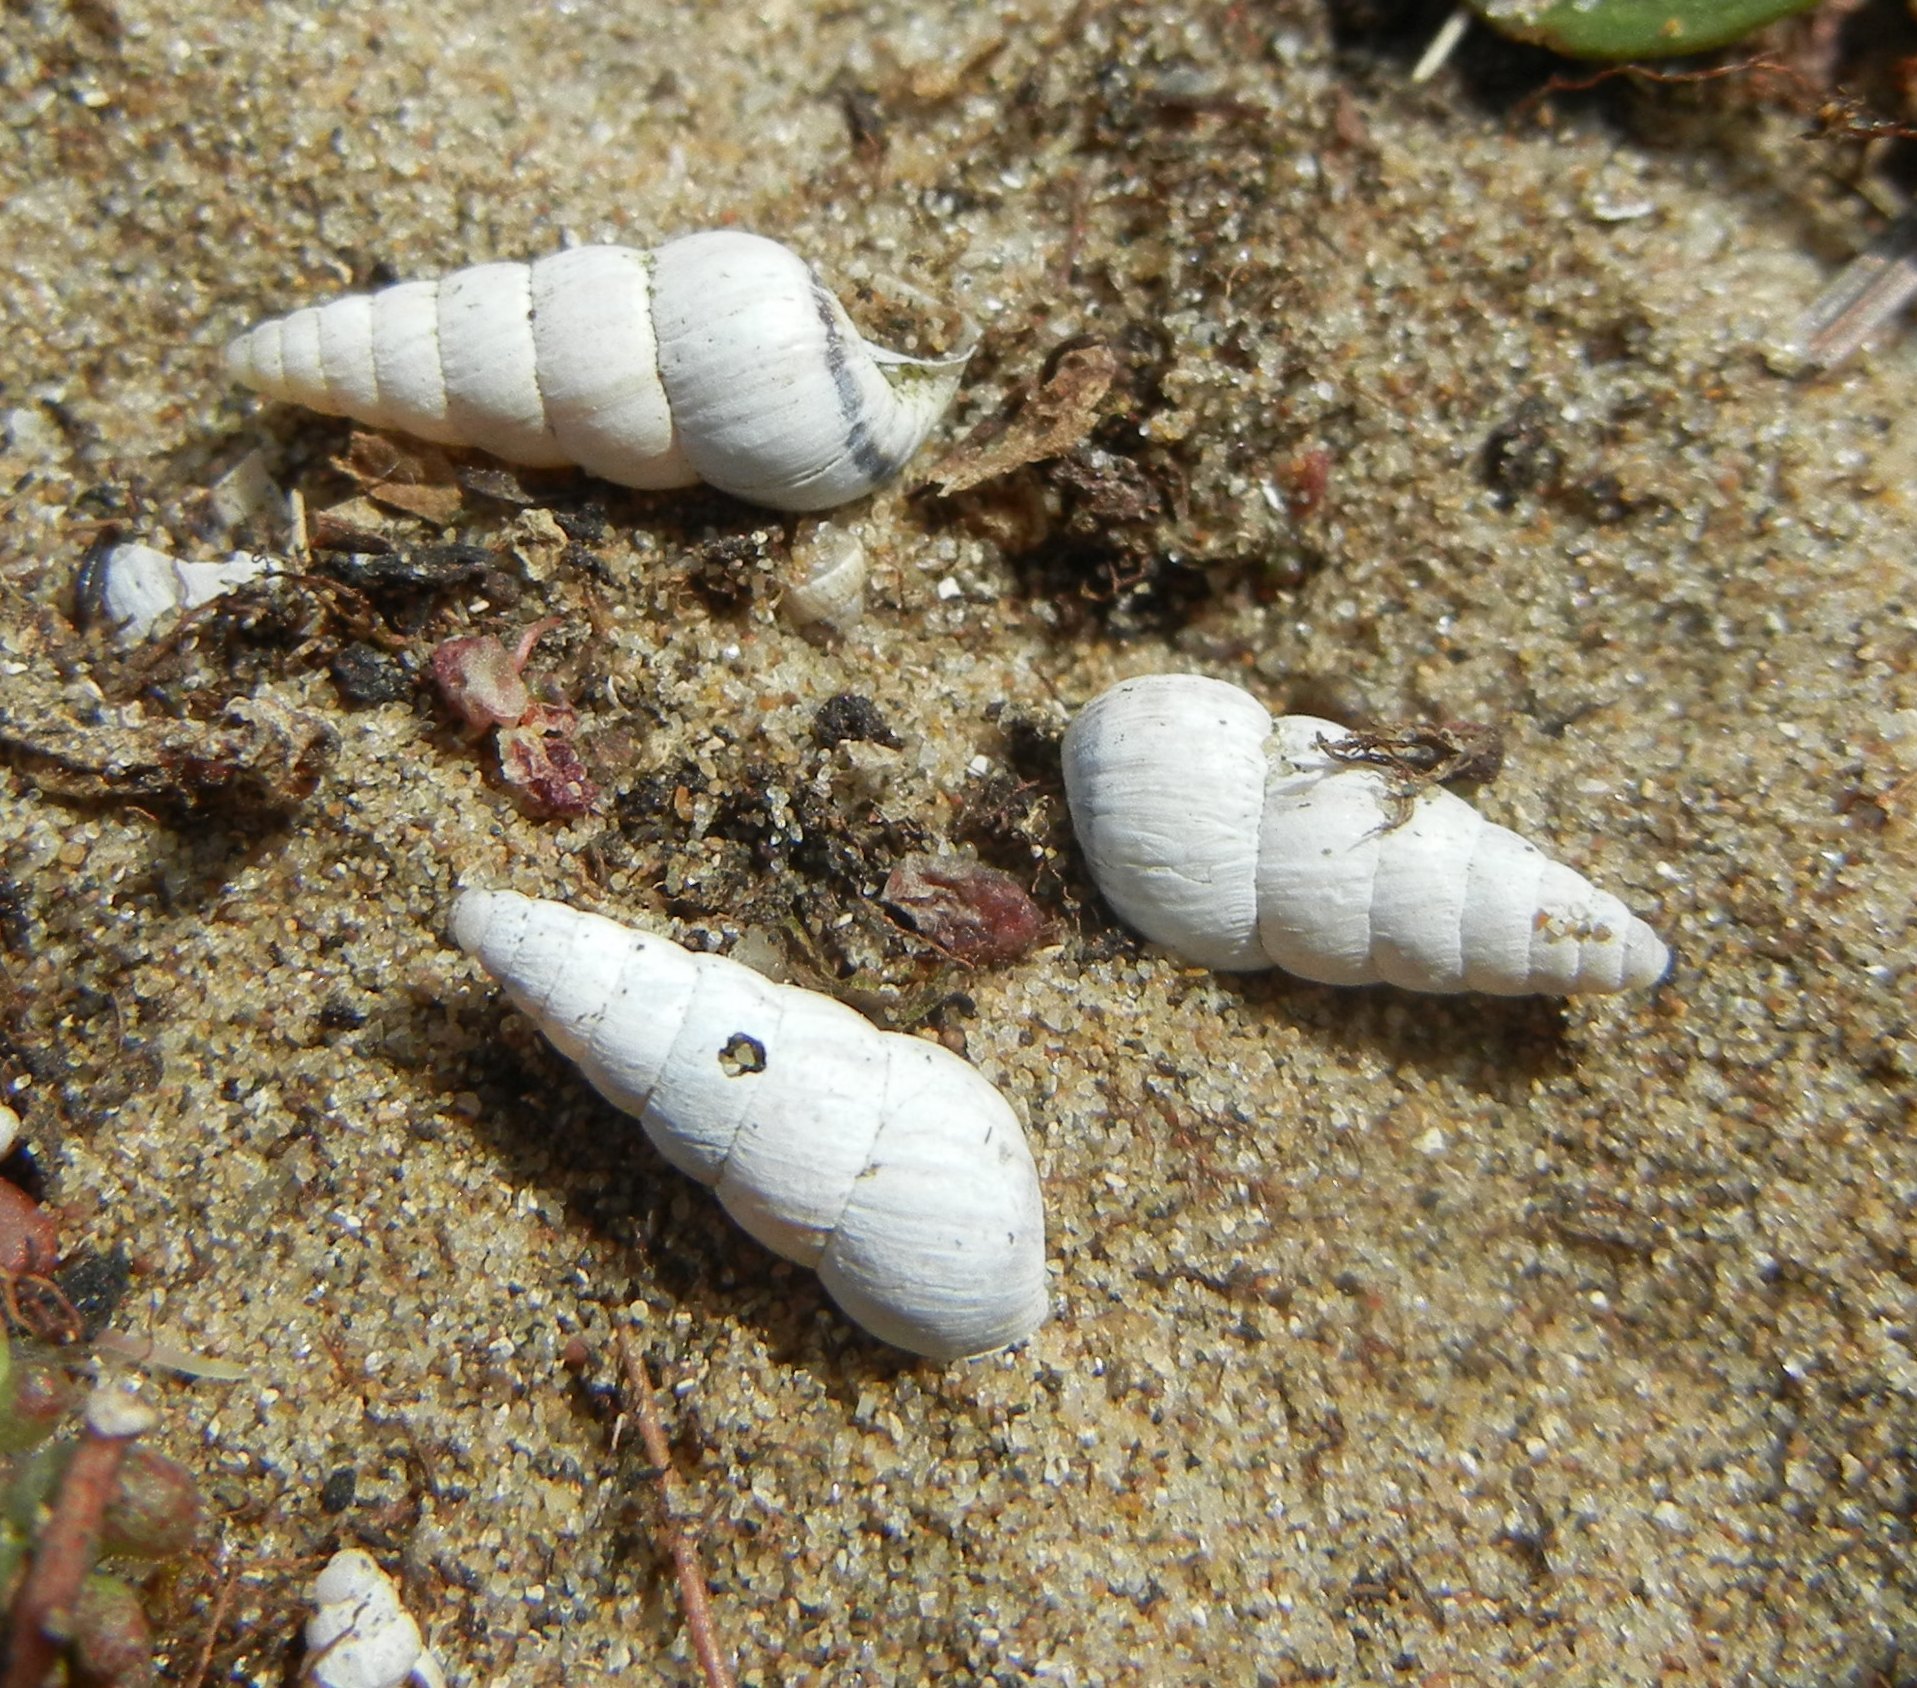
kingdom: Animalia
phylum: Mollusca
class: Gastropoda
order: Stylommatophora
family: Geomitridae
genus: Cochlicella
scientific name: Cochlicella acuta
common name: Pointed snail
